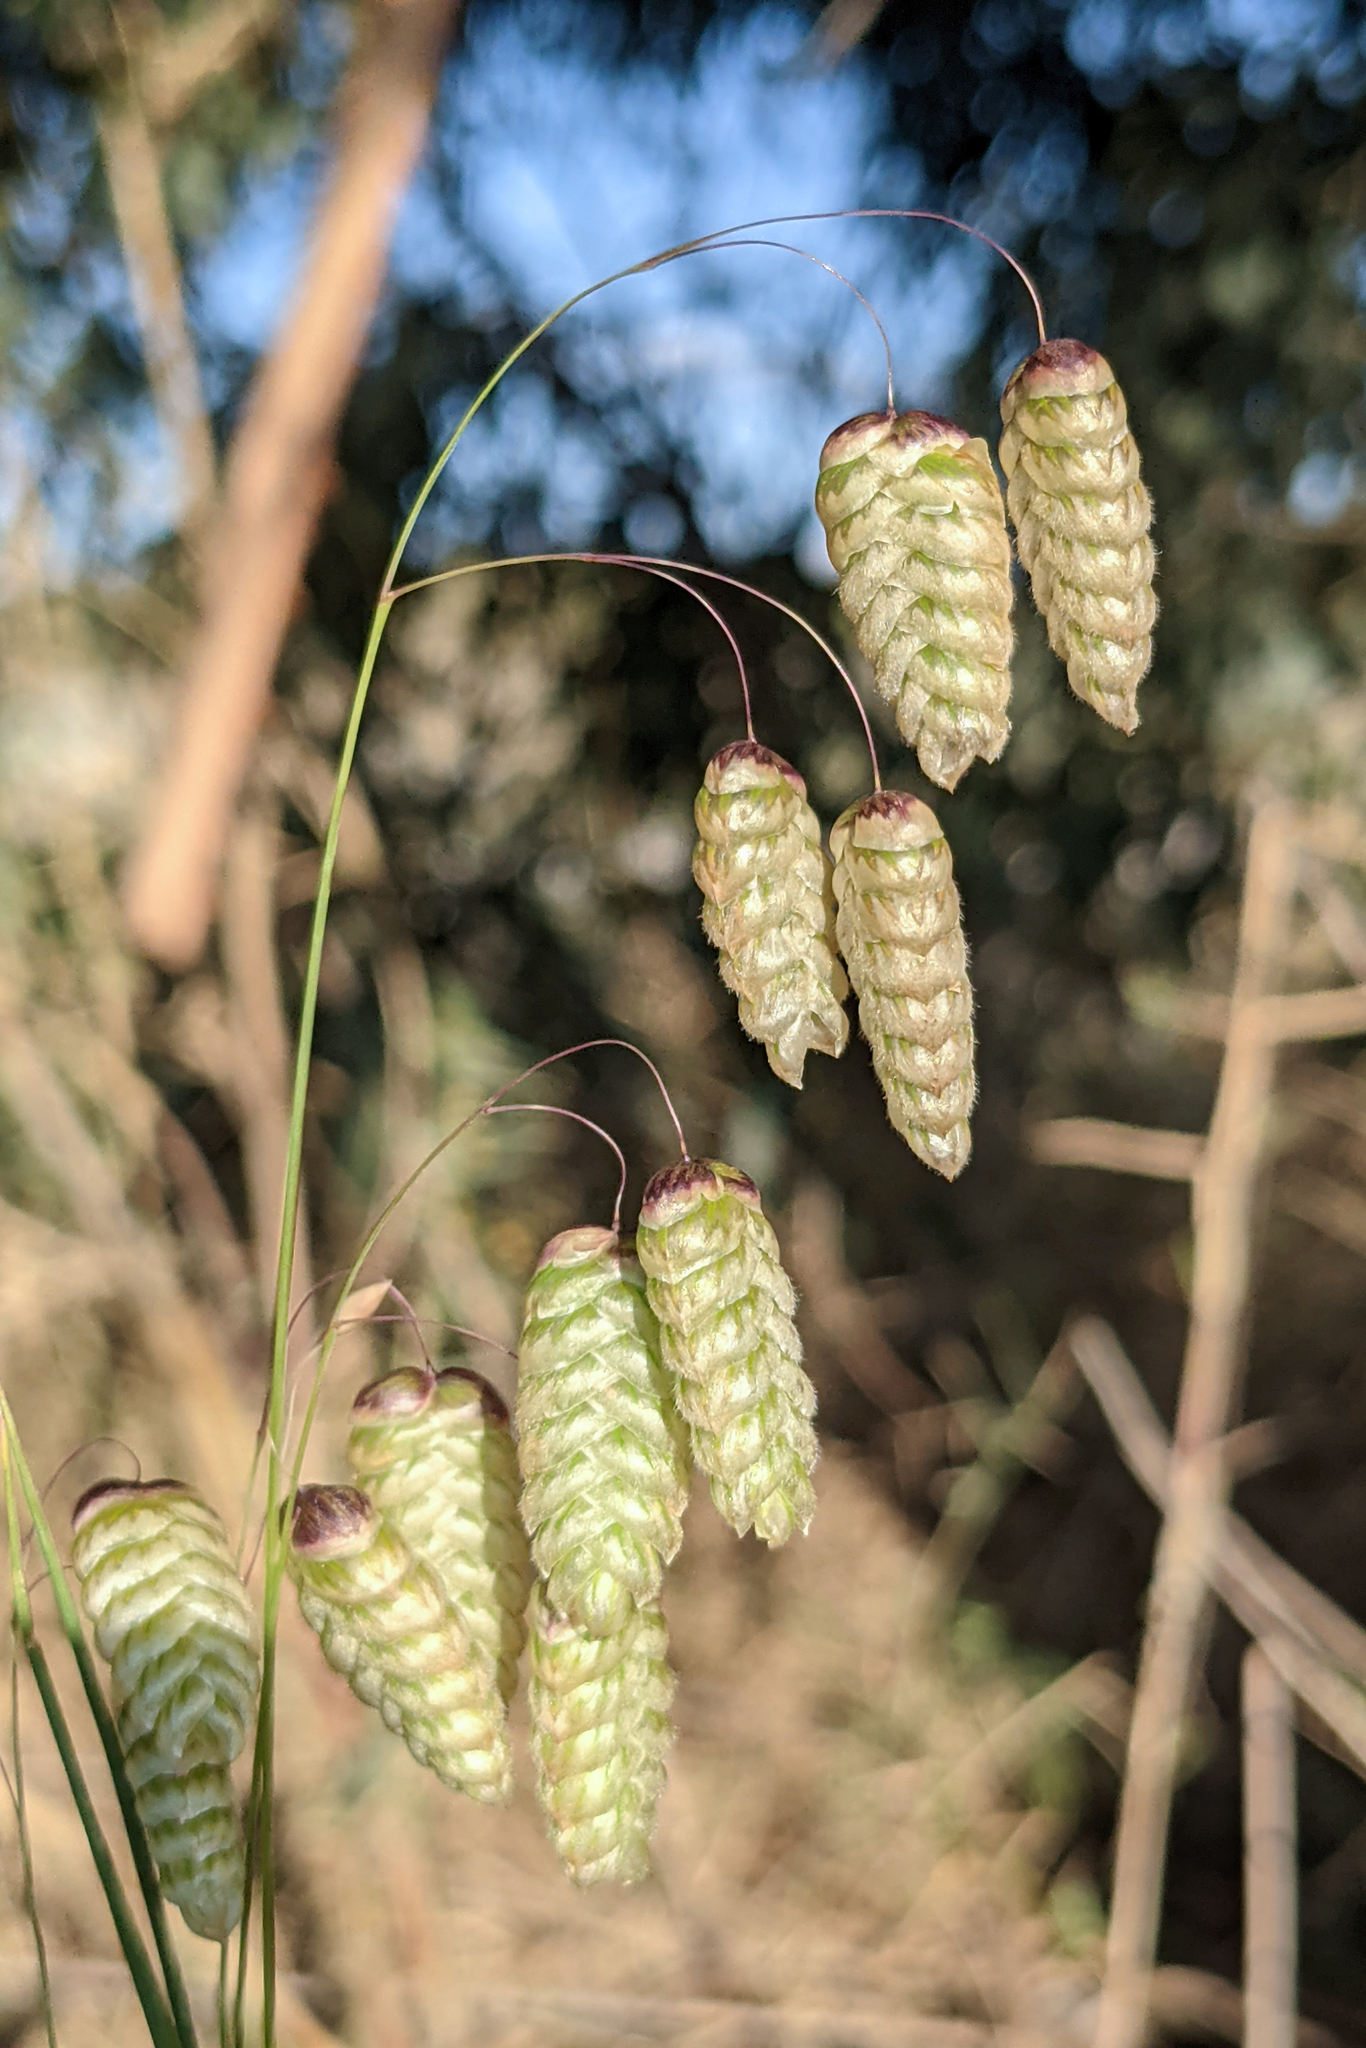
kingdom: Plantae
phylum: Tracheophyta
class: Liliopsida
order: Poales
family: Poaceae
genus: Briza
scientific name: Briza maxima
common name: Big quakinggrass
